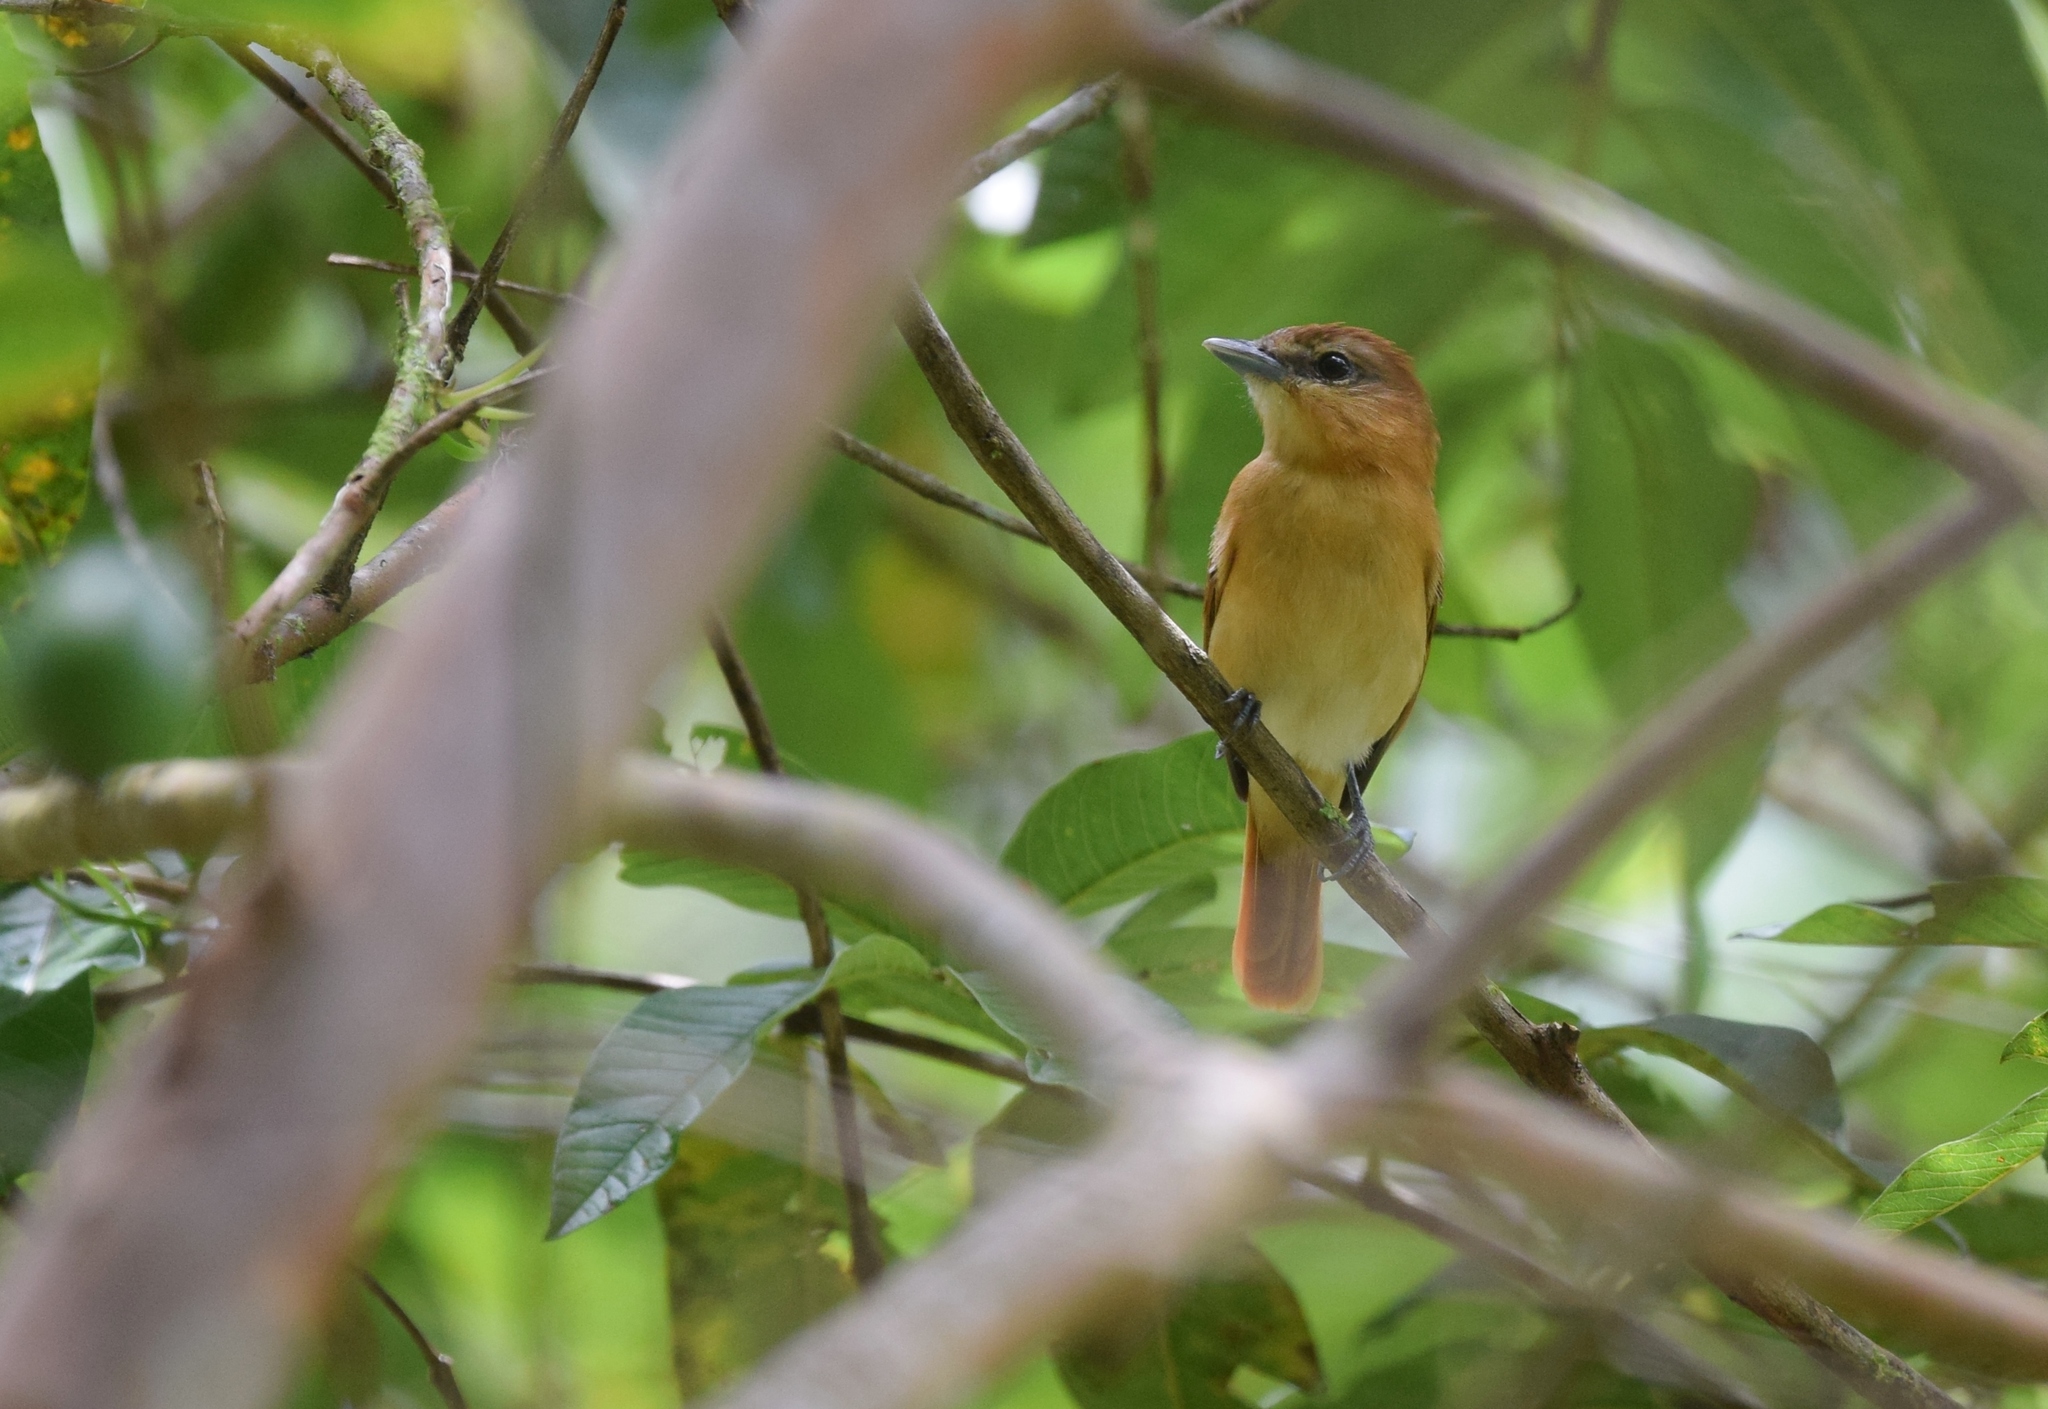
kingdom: Animalia
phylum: Chordata
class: Aves
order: Passeriformes
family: Cotingidae
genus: Pachyramphus
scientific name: Pachyramphus cinnamomeus
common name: Cinnamon becard
